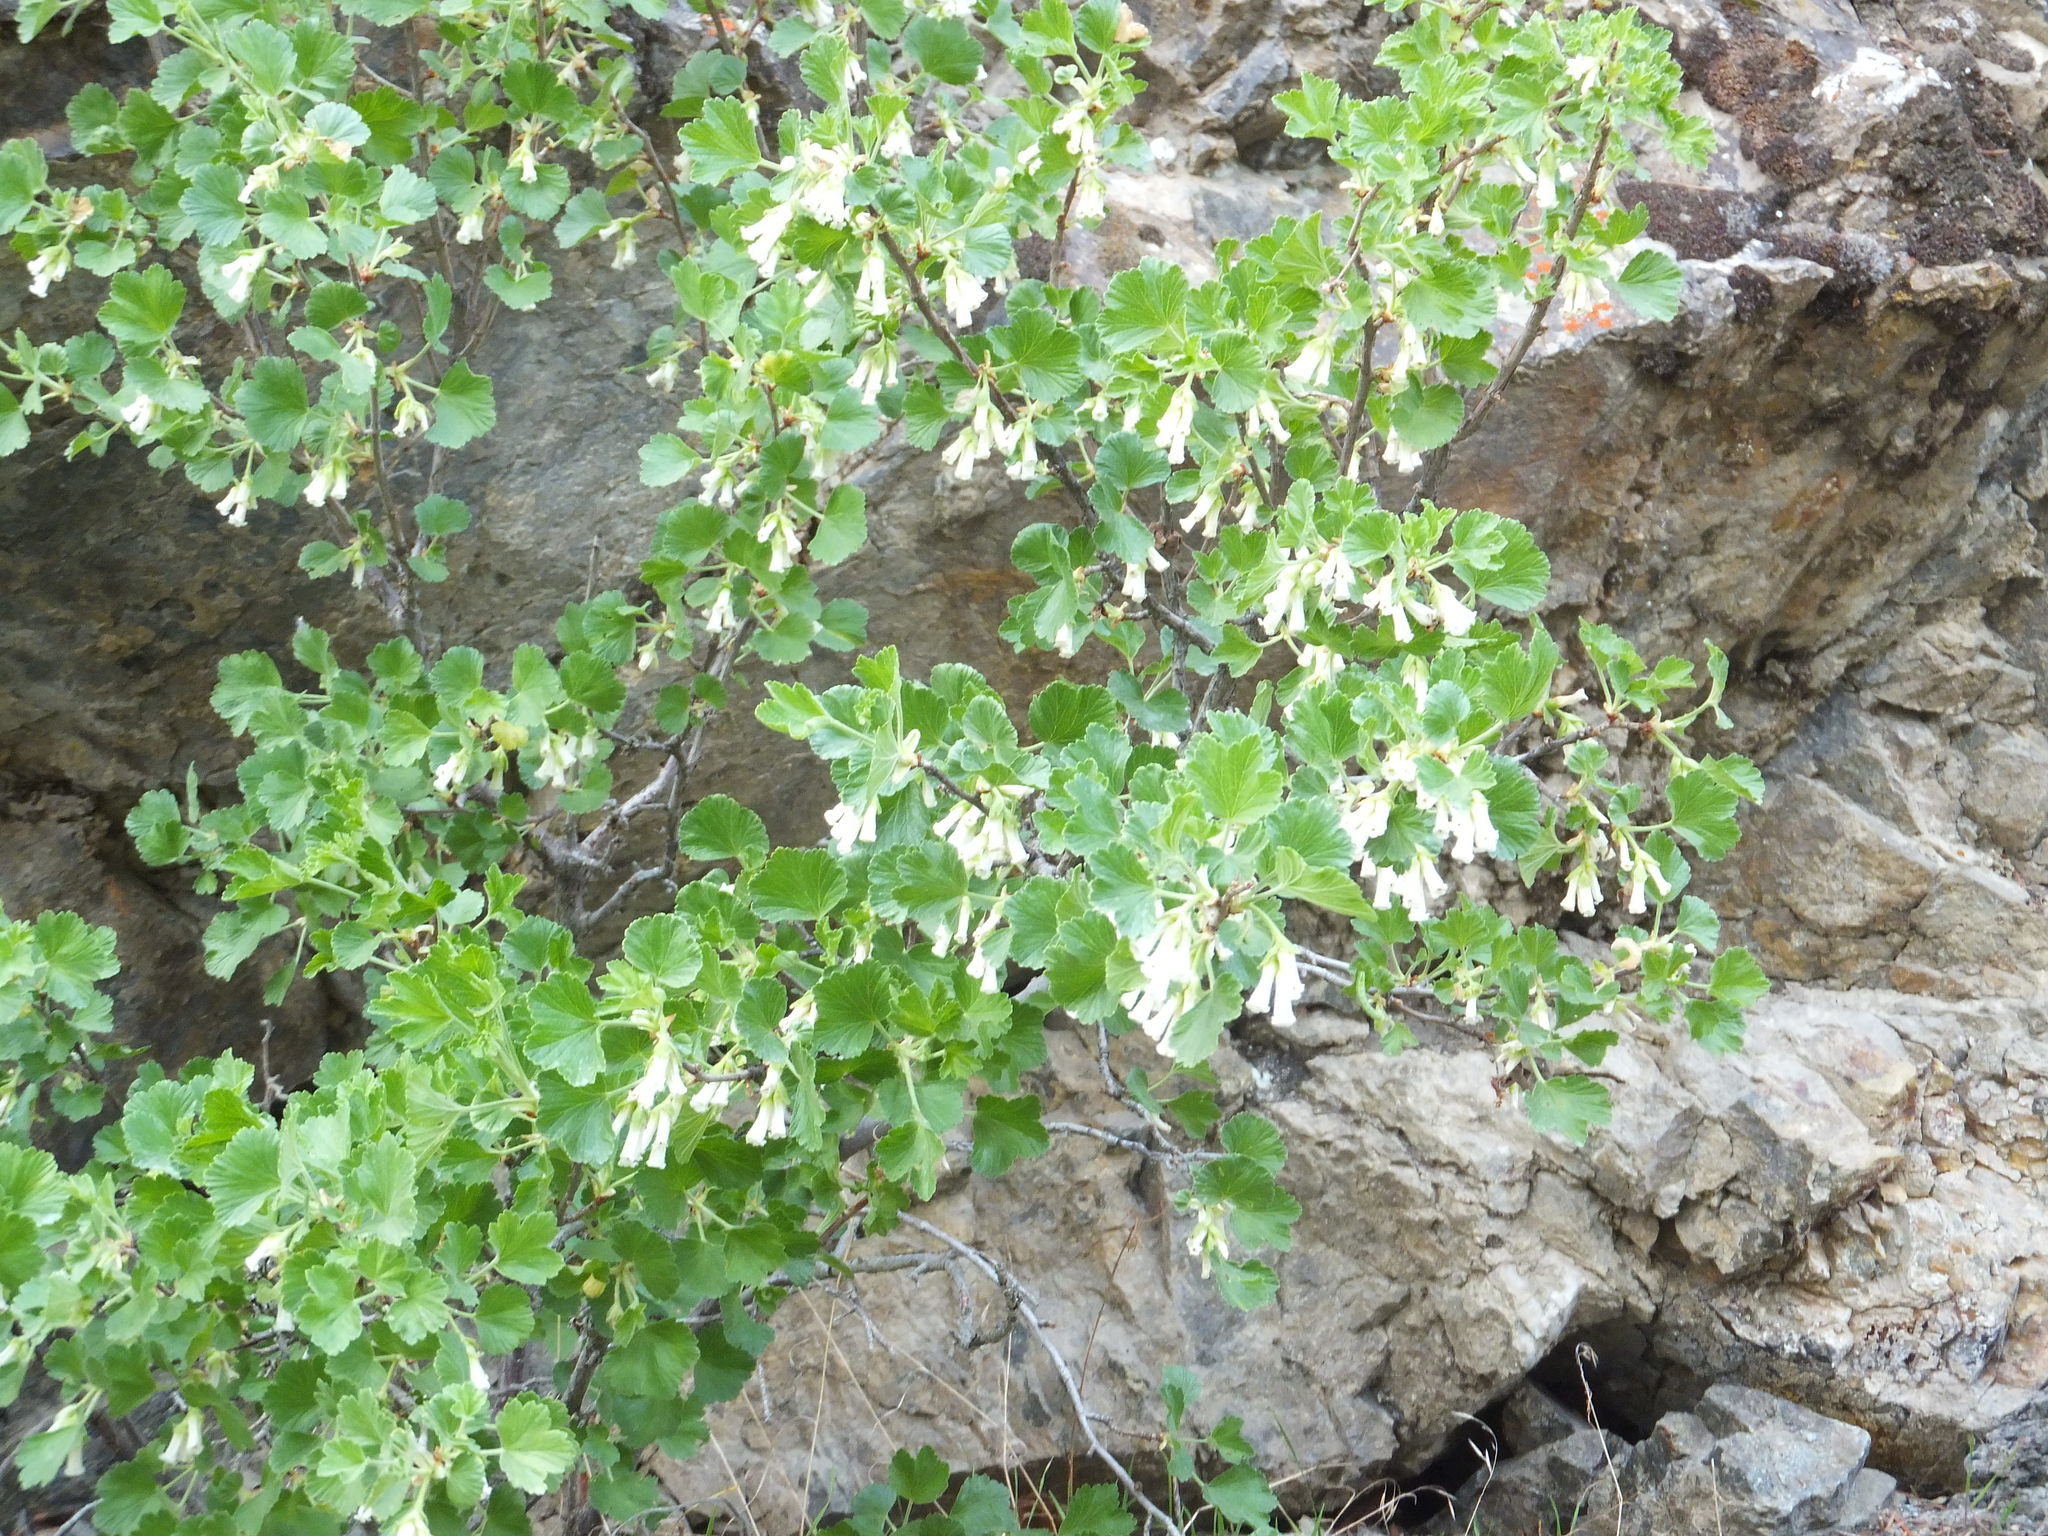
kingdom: Plantae
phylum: Tracheophyta
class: Magnoliopsida
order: Saxifragales
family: Grossulariaceae
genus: Ribes
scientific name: Ribes cereum
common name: Wax currant
